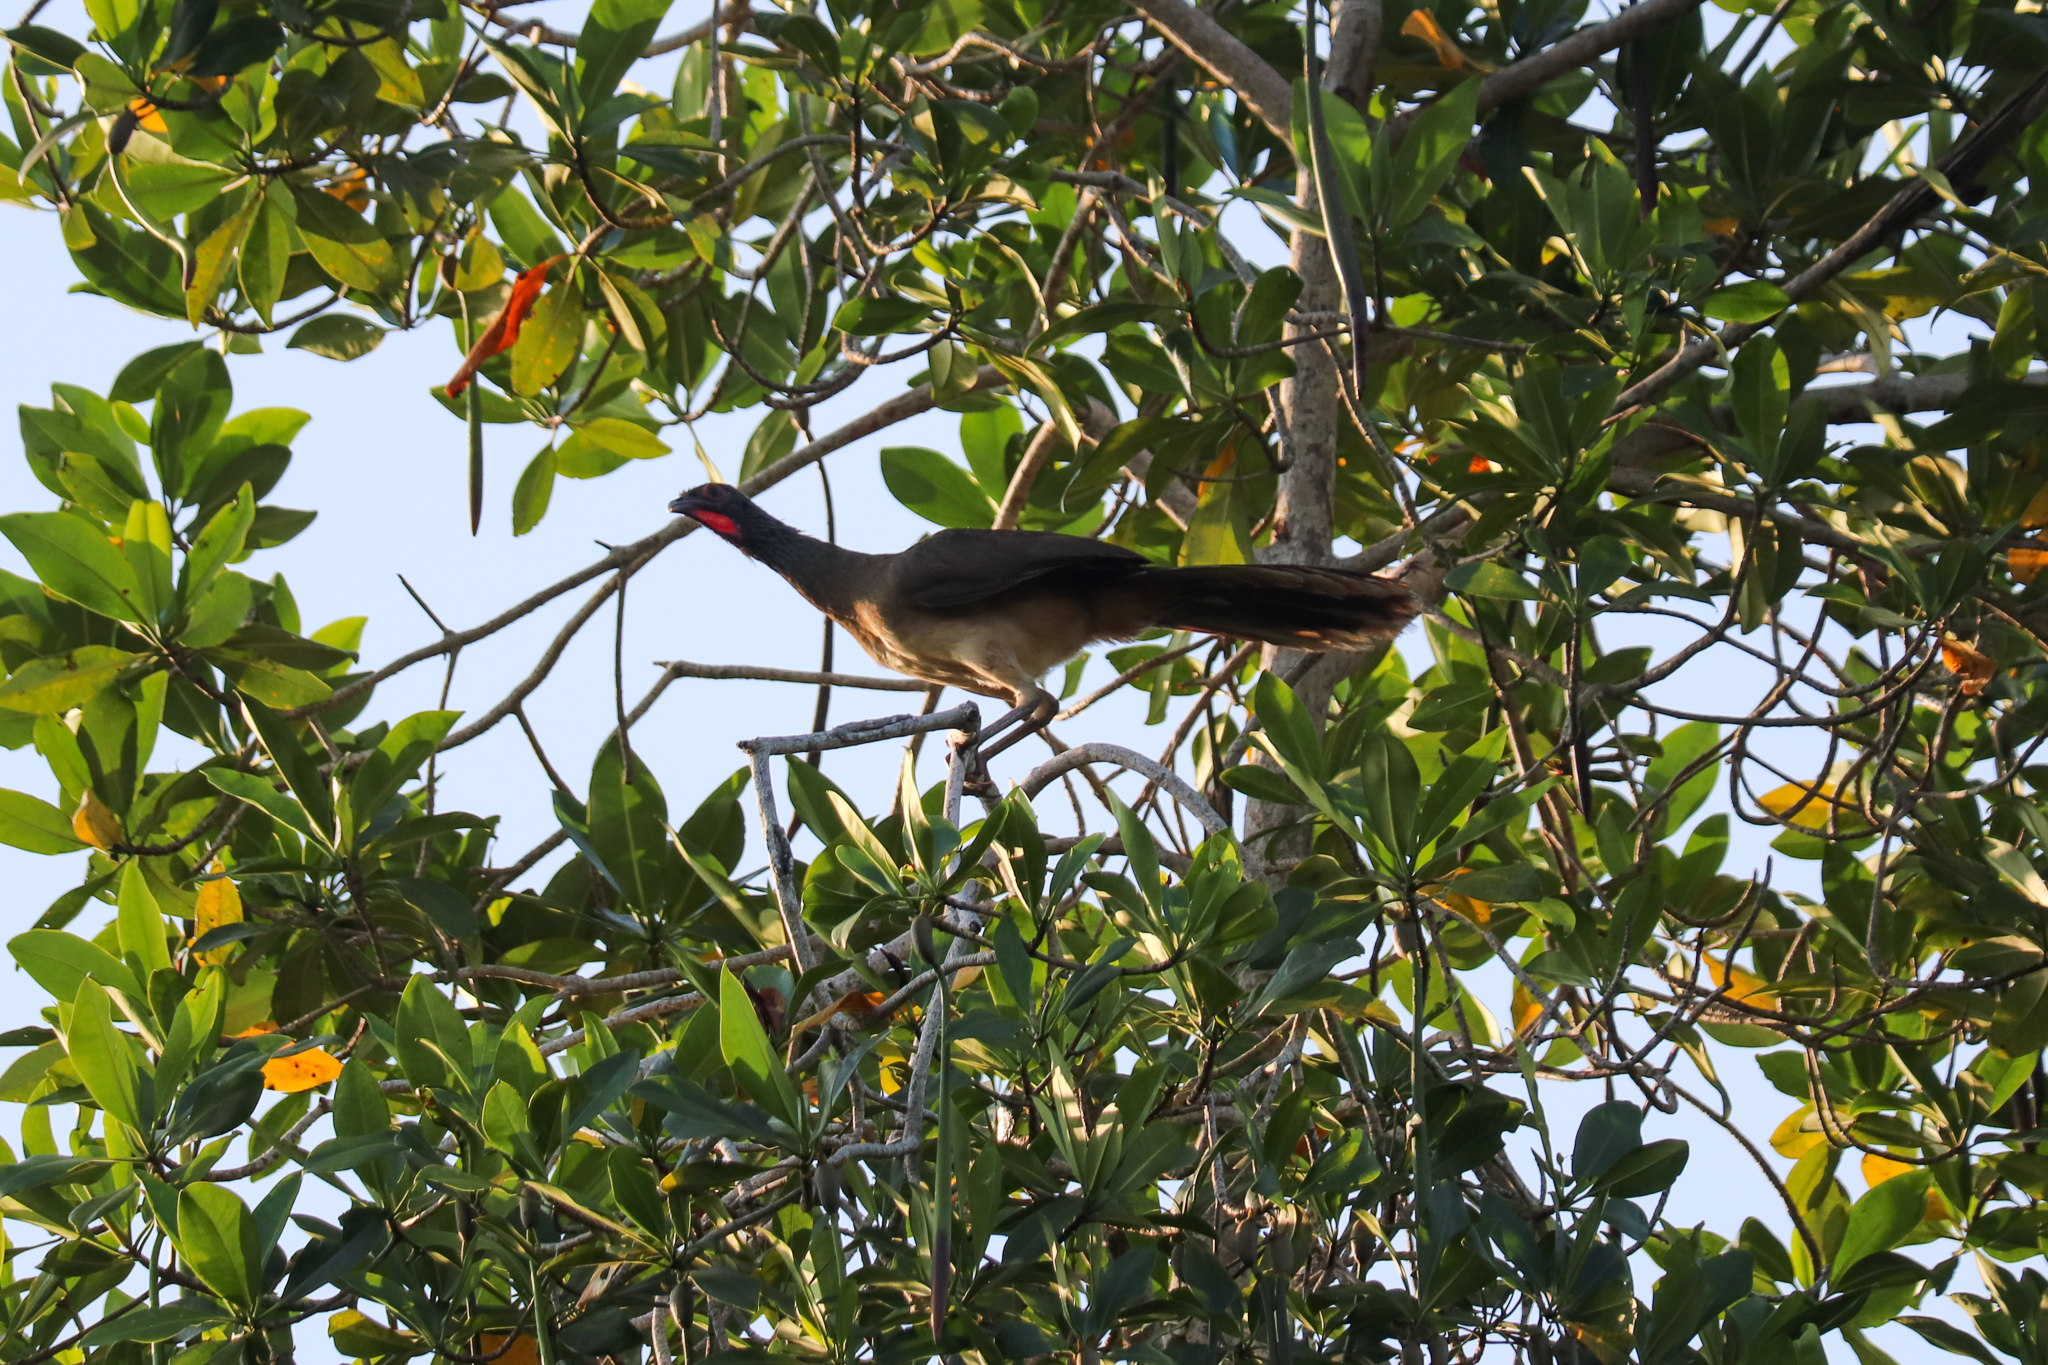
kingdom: Animalia
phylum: Chordata
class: Aves
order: Galliformes
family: Cracidae
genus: Ortalis
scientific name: Ortalis poliocephala
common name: West mexican chachalaca
